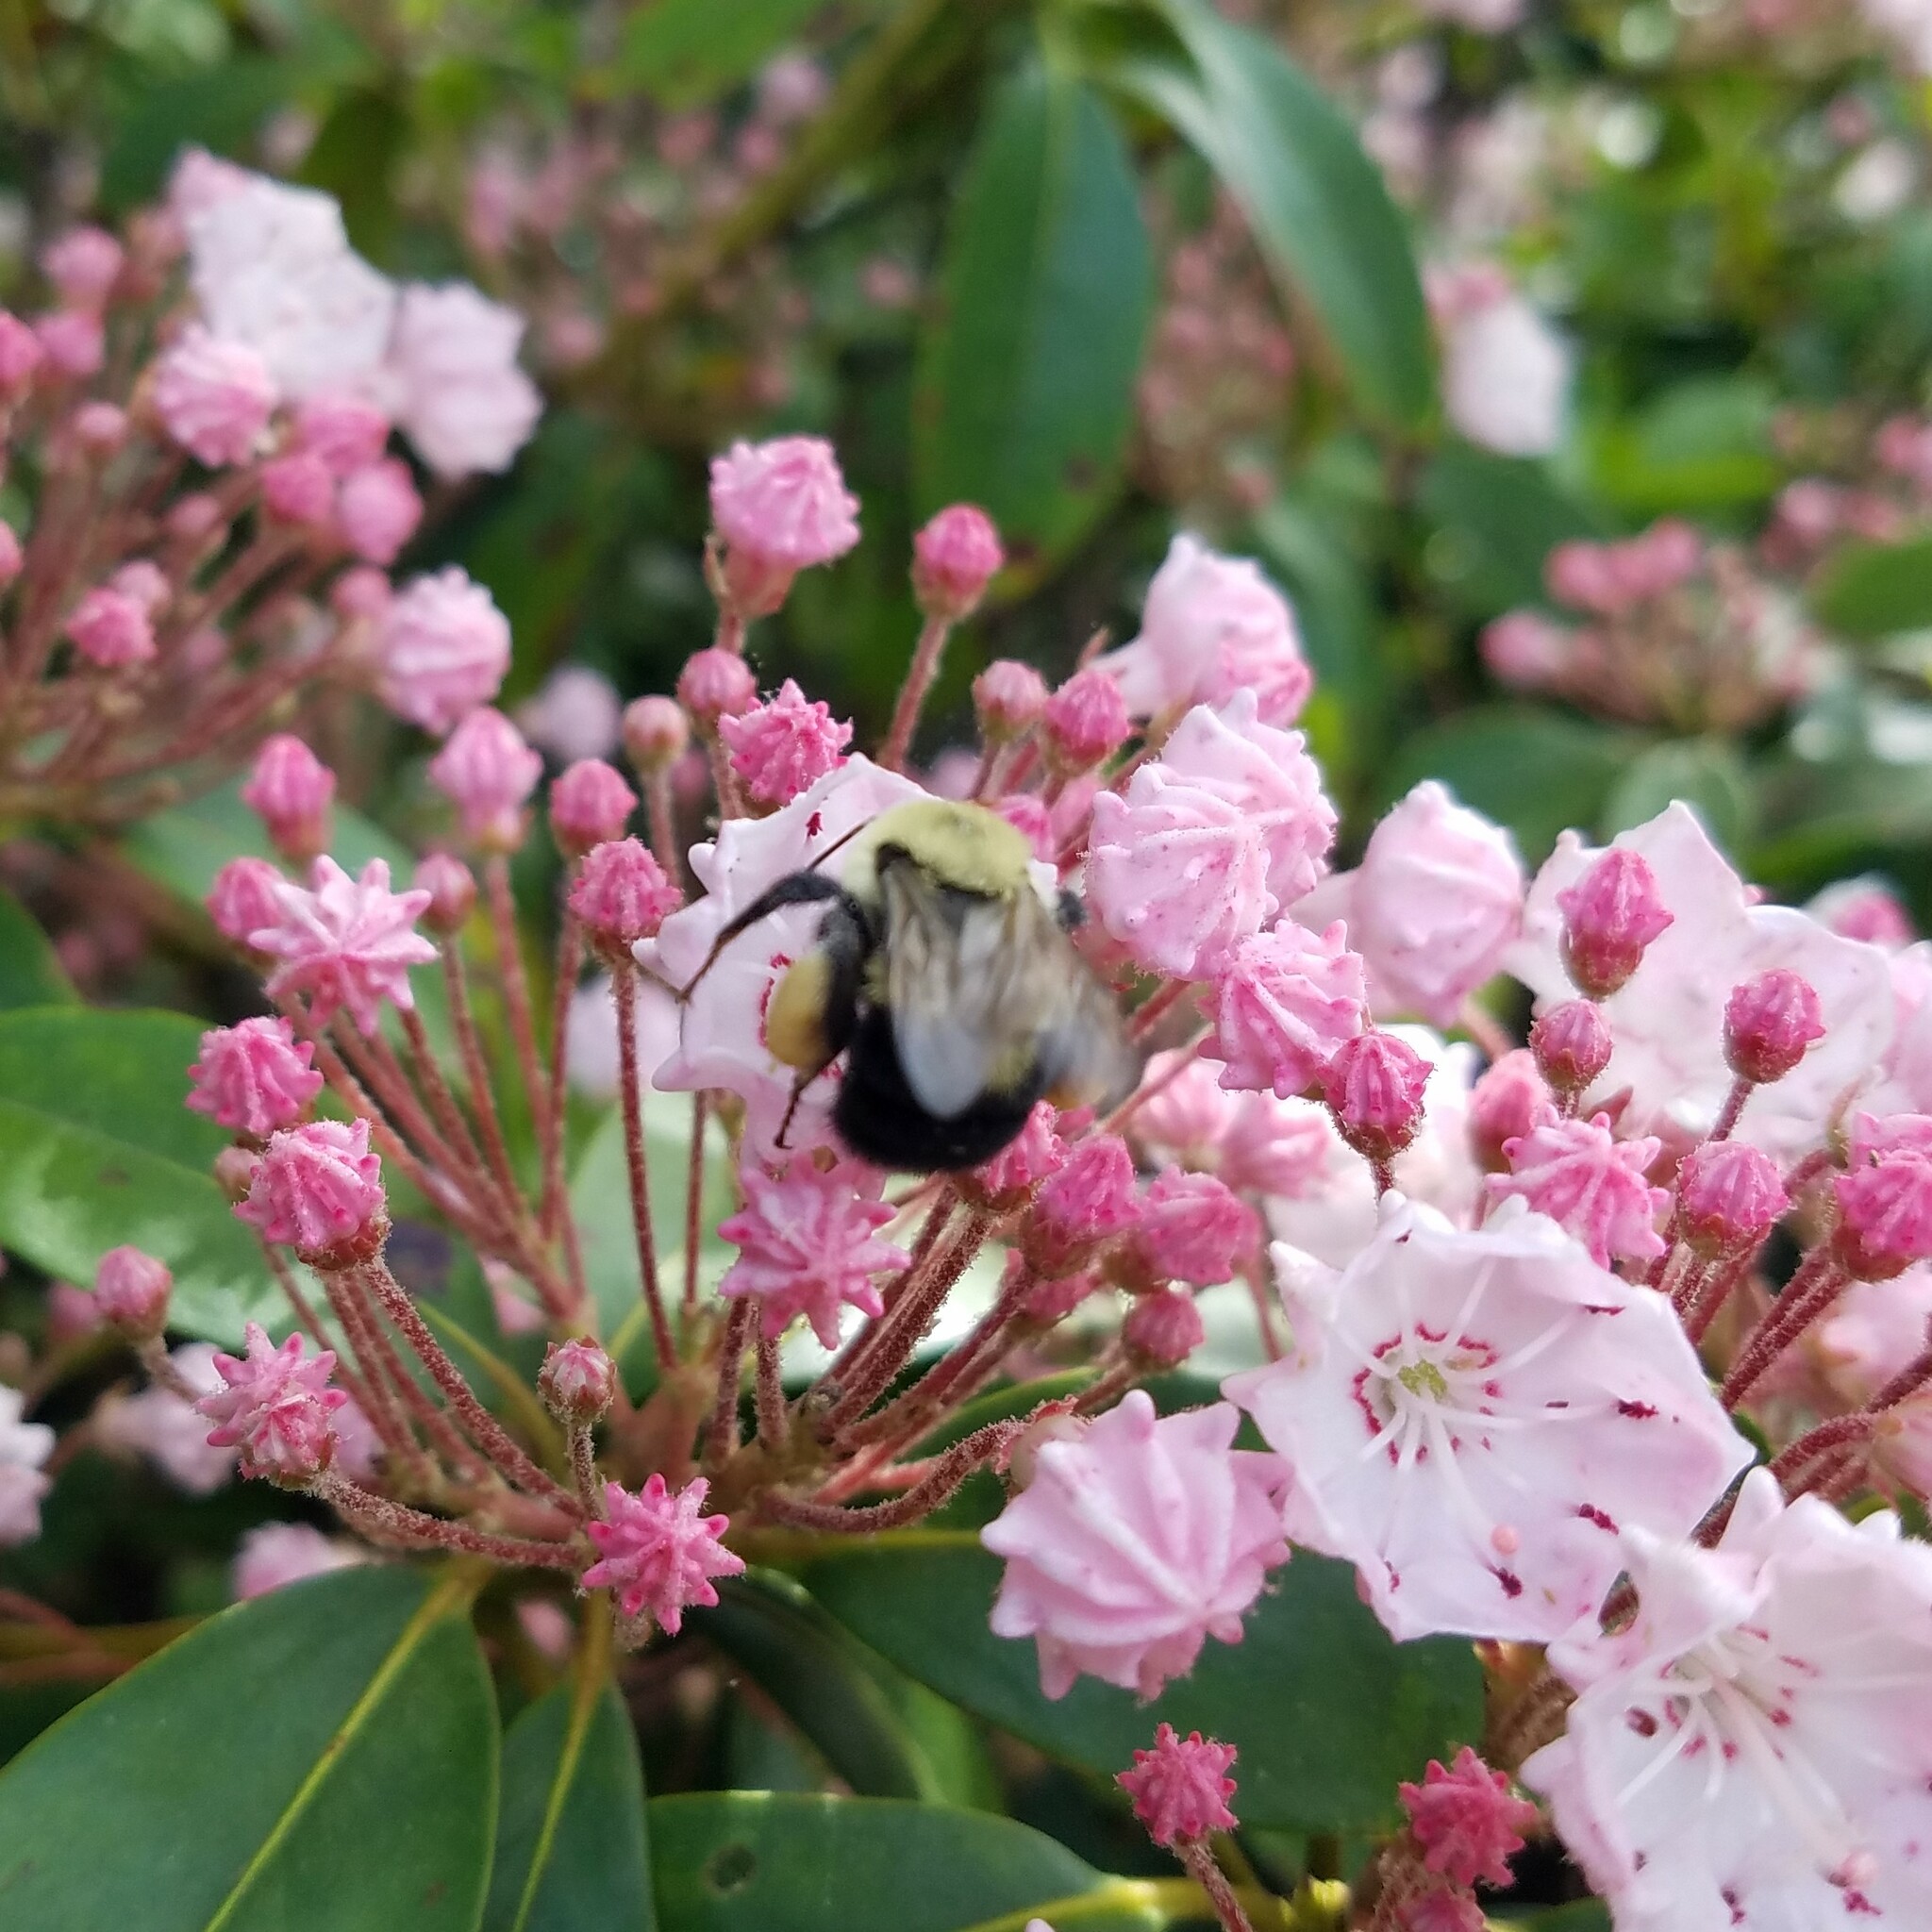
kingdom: Animalia
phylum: Arthropoda
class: Insecta
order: Hymenoptera
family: Apidae
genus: Bombus
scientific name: Bombus bimaculatus
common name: Two-spotted bumble bee
